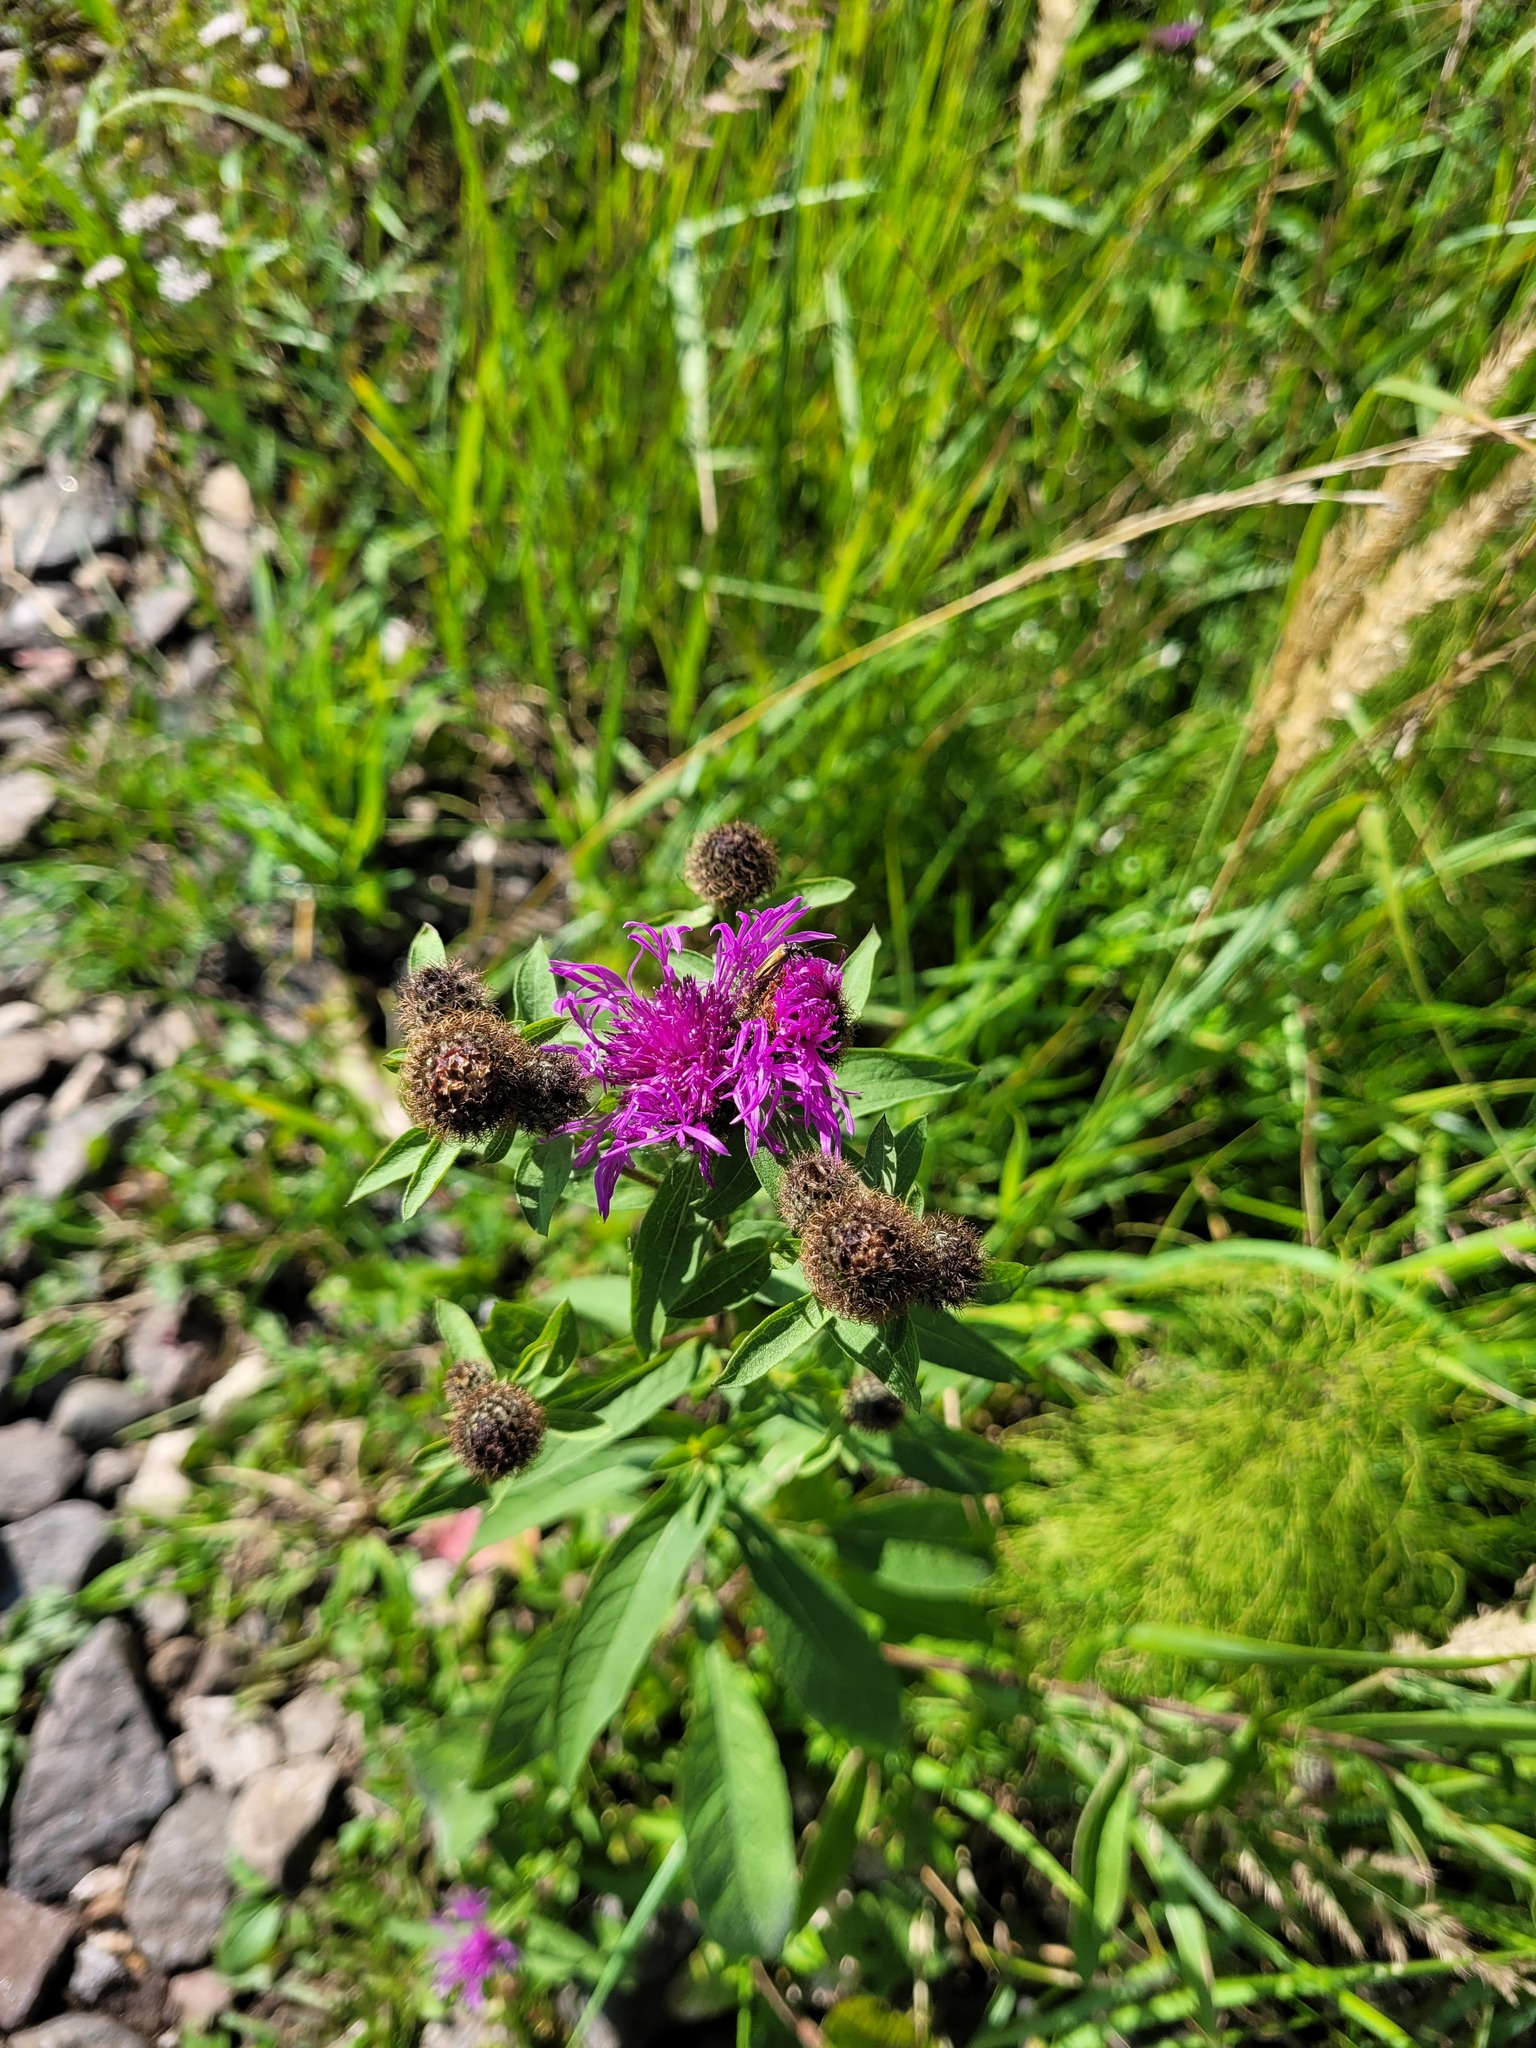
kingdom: Plantae
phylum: Tracheophyta
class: Magnoliopsida
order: Asterales
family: Asteraceae
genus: Centaurea
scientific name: Centaurea phrygia
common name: Wig knapweed
